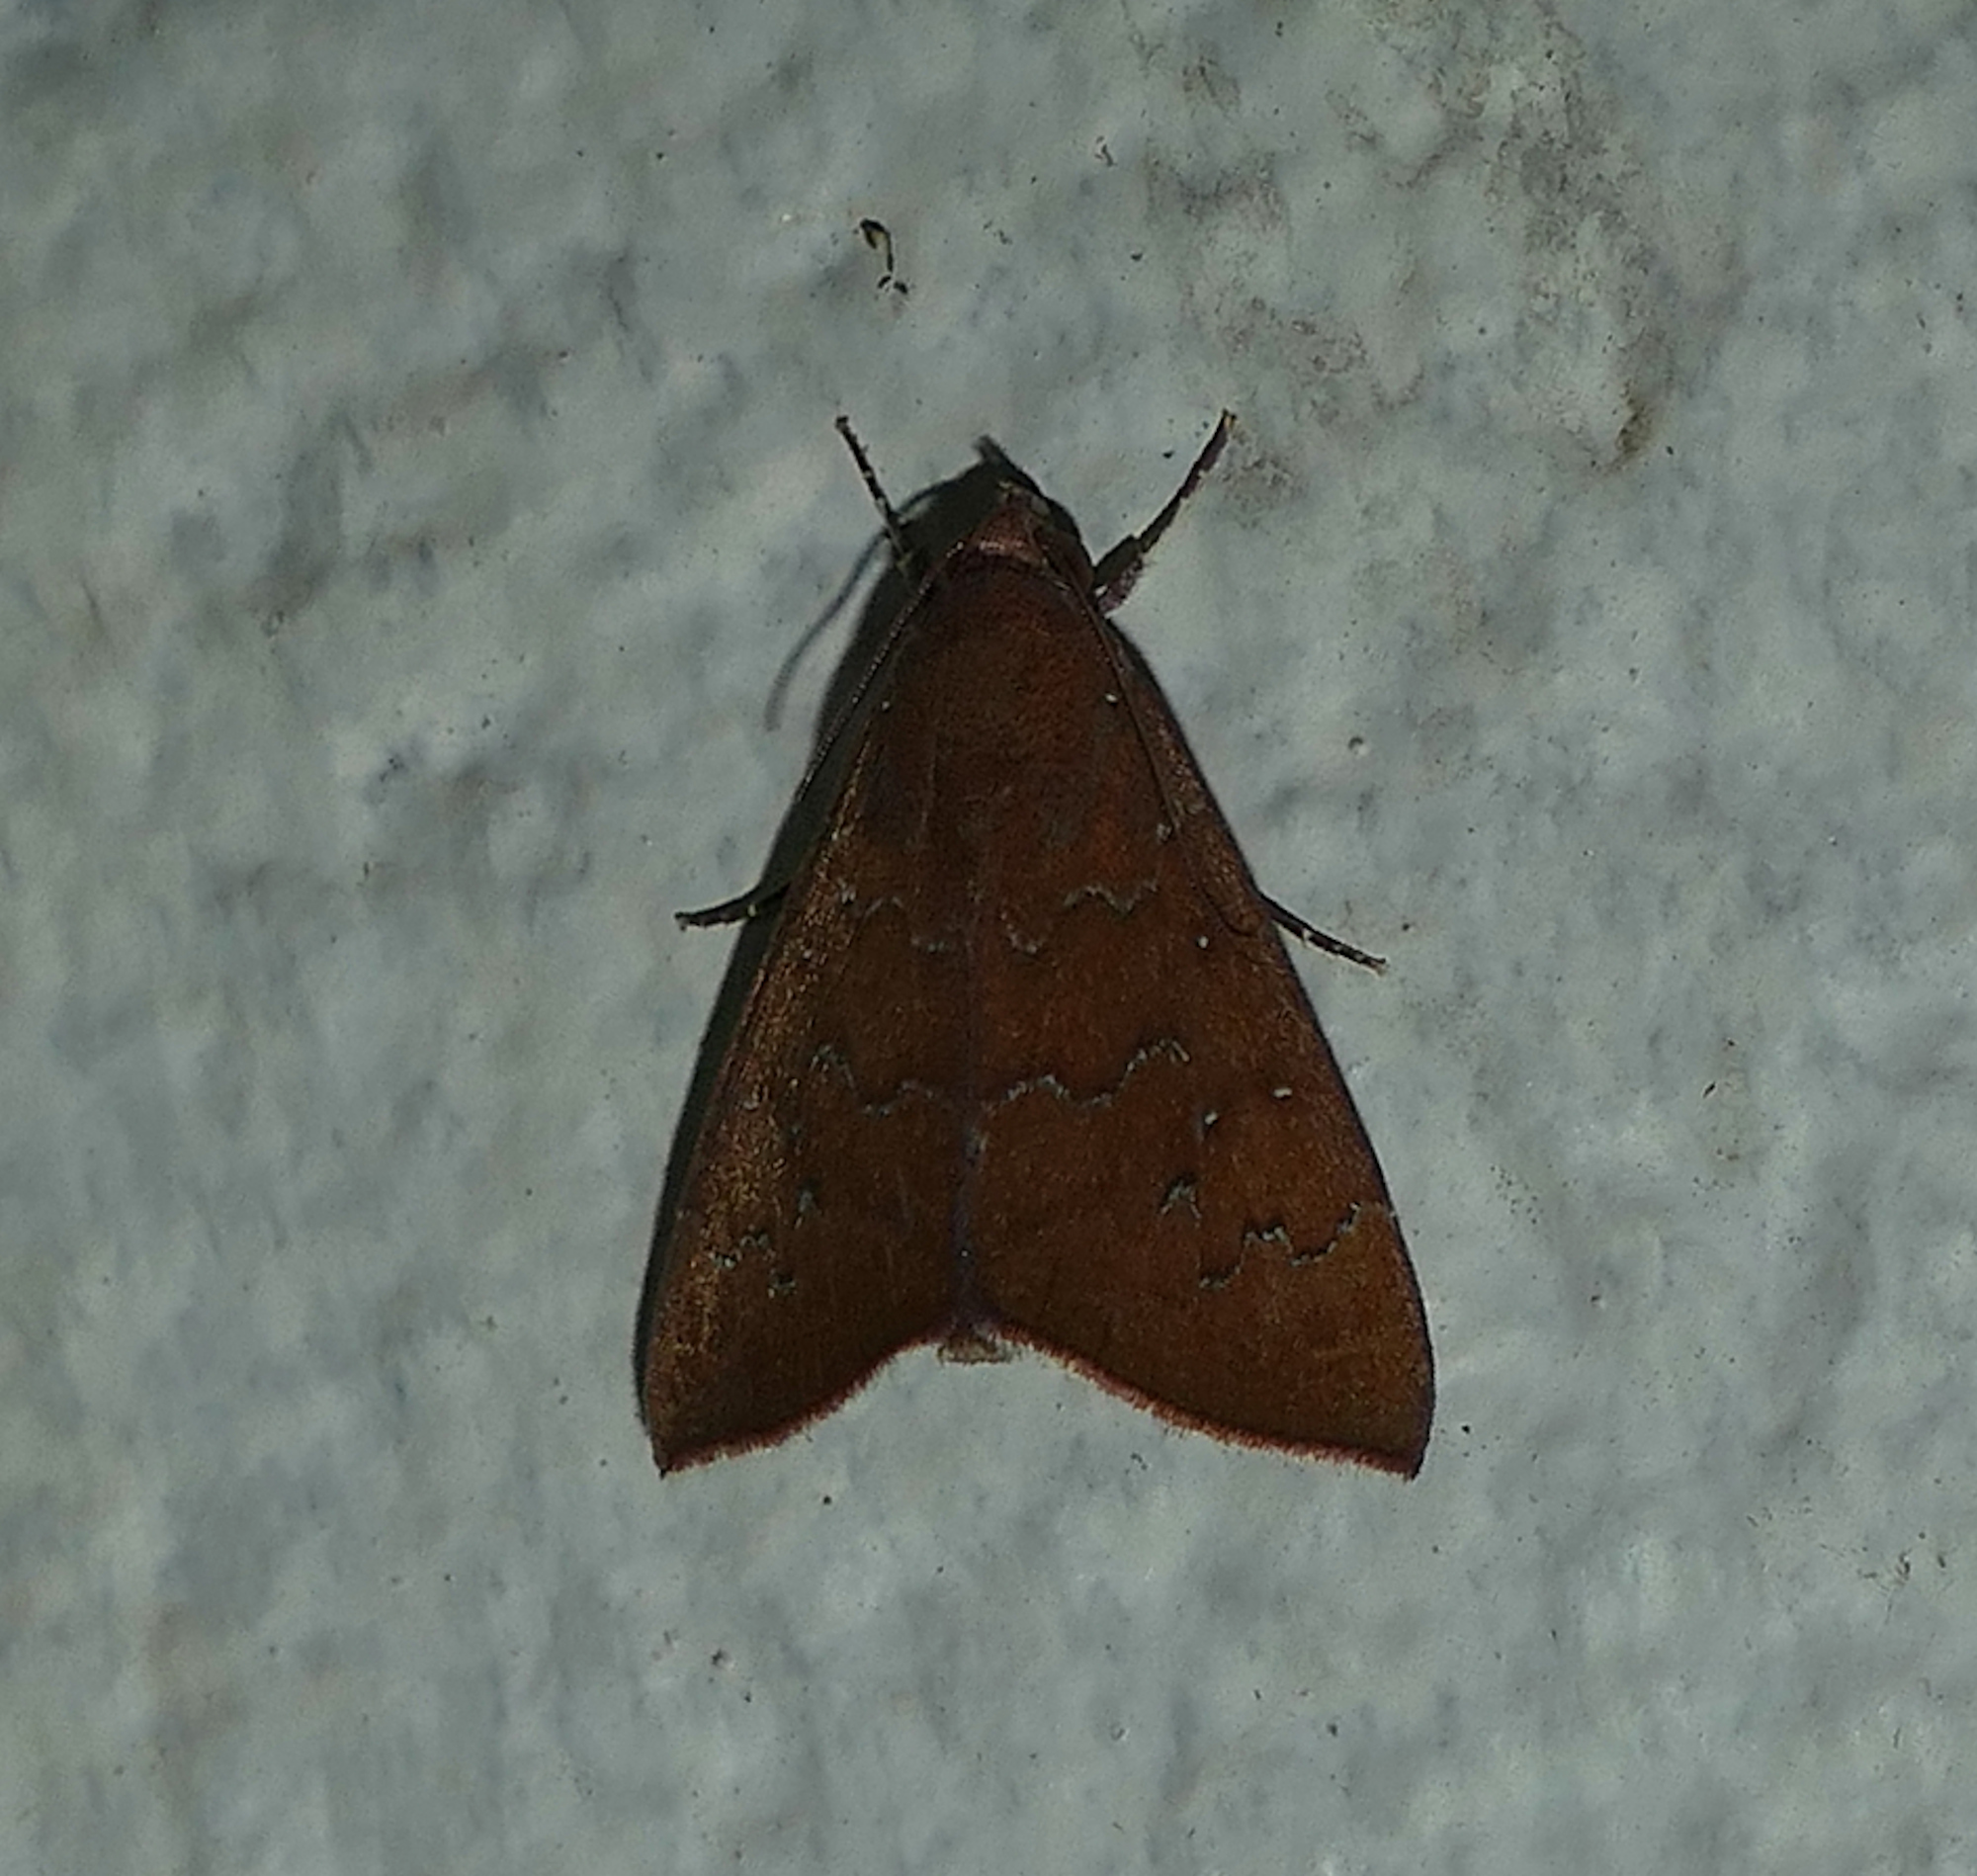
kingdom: Animalia
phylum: Arthropoda
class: Insecta
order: Lepidoptera
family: Erebidae
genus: Anomis
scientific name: Anomis illita
